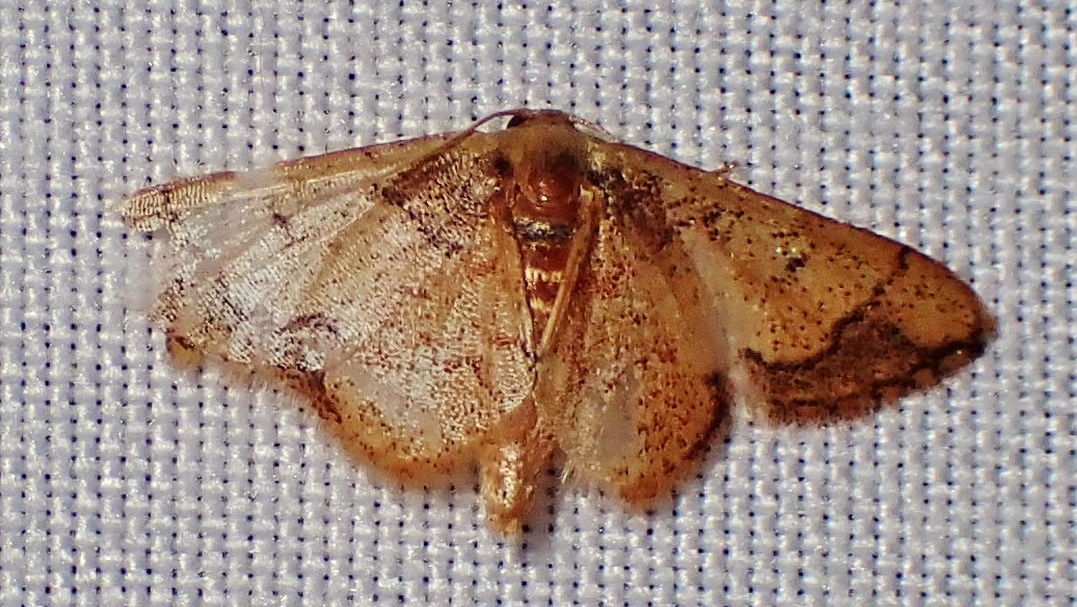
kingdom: Animalia
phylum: Arthropoda
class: Insecta
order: Lepidoptera
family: Geometridae
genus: Idaea
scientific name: Idaea kendallaria
